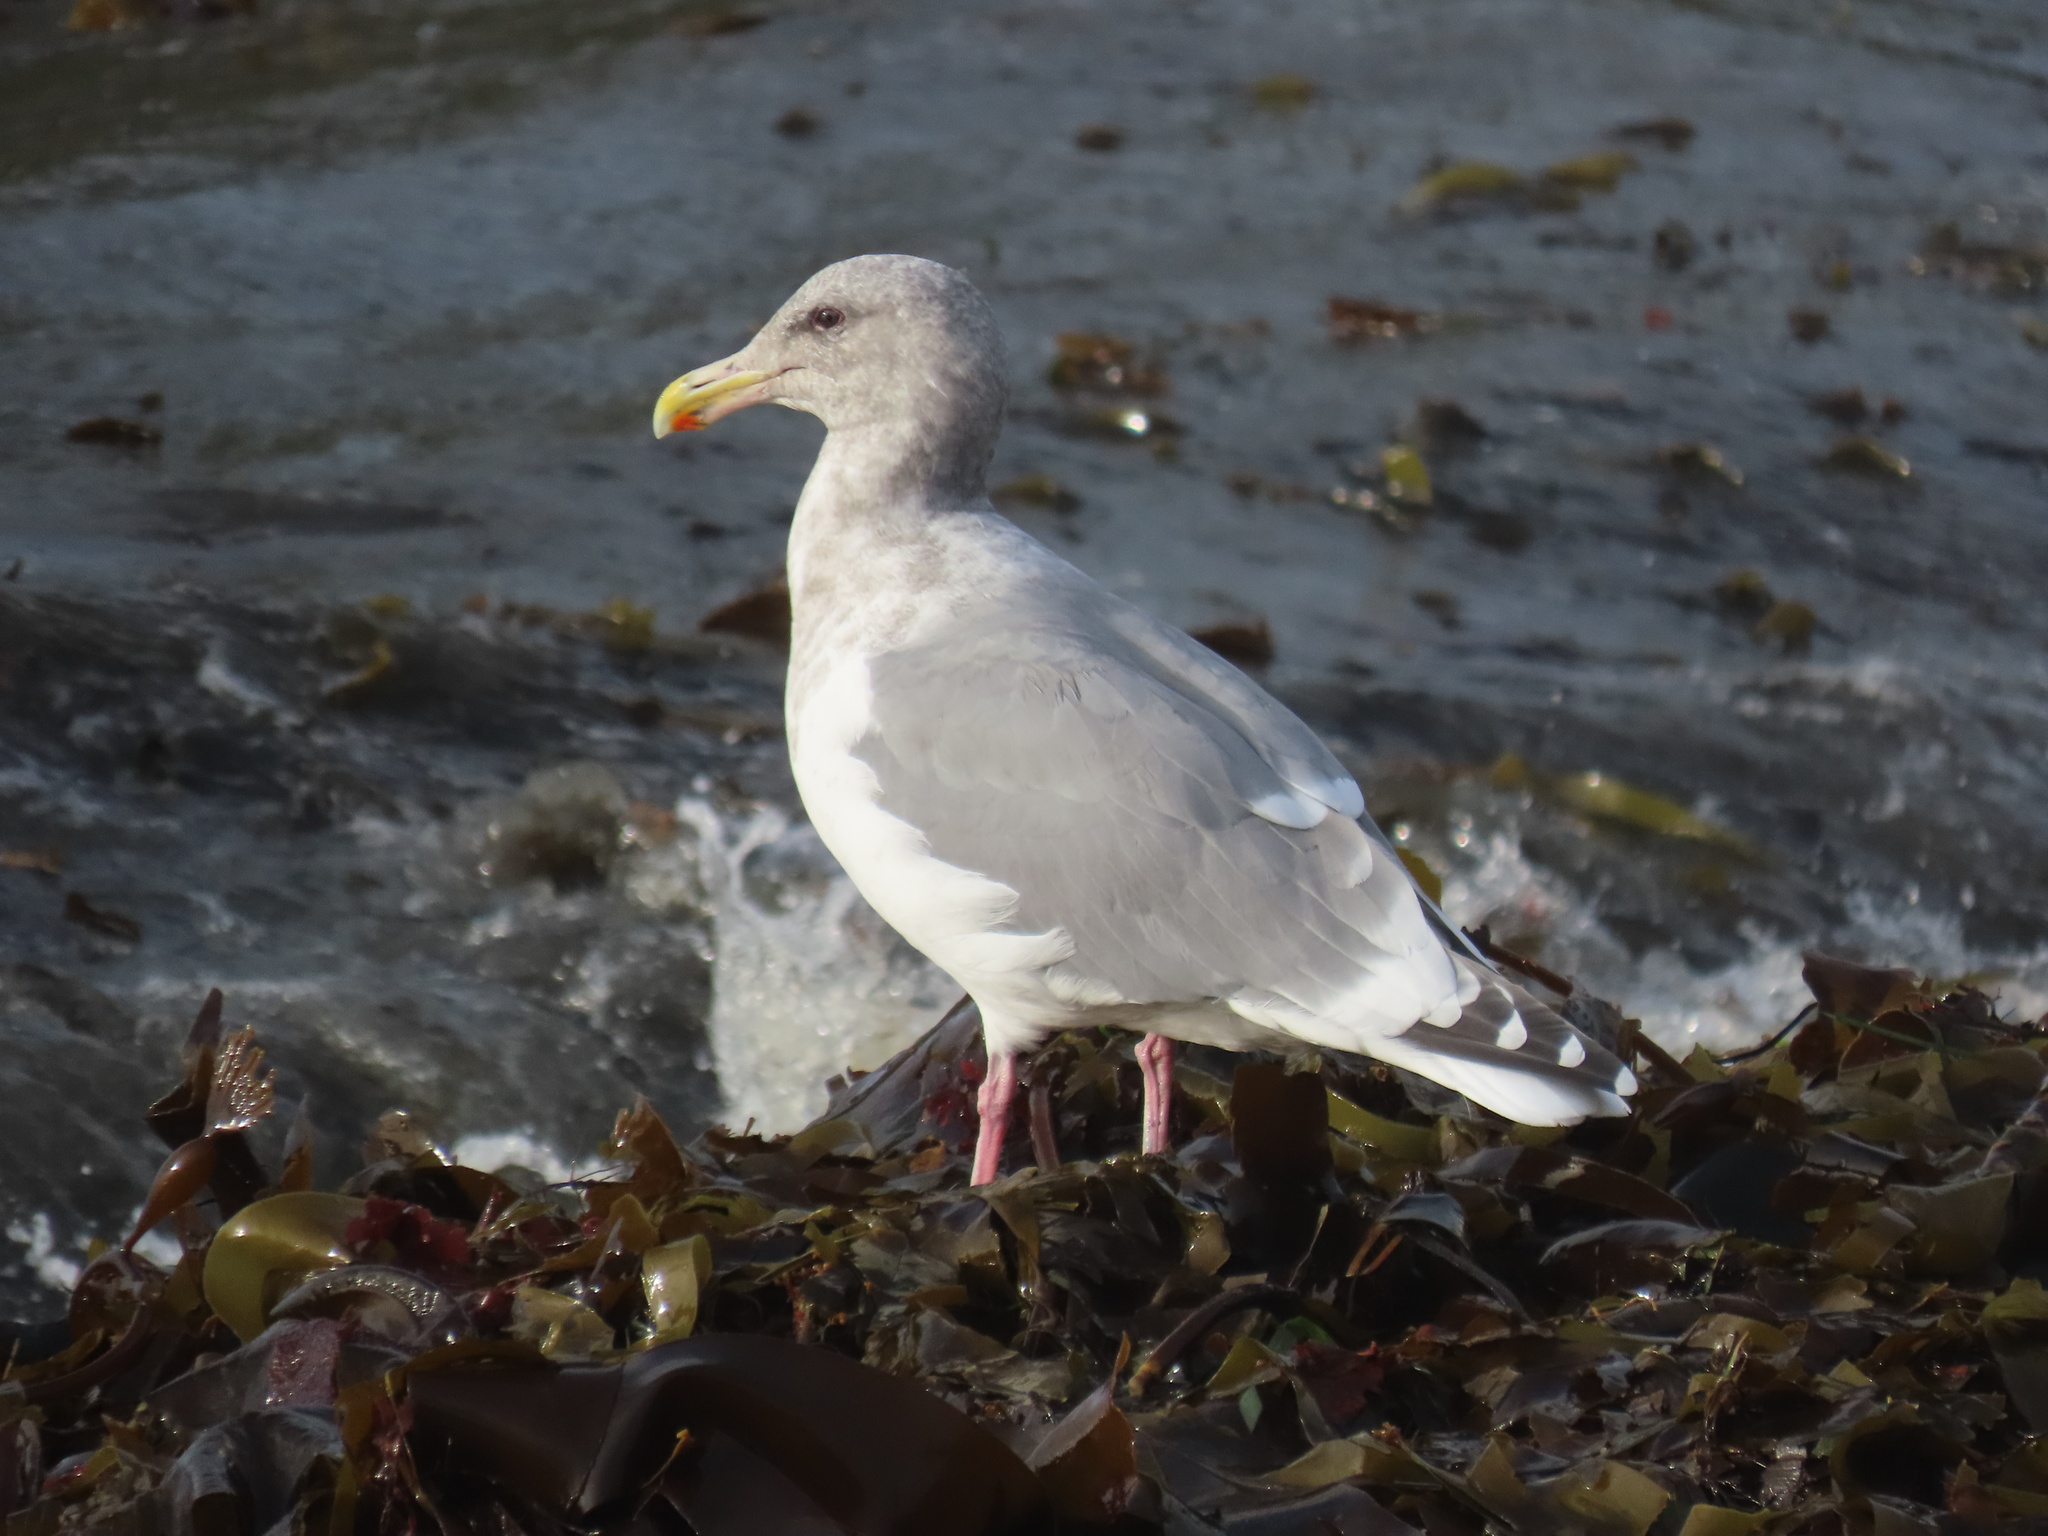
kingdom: Animalia
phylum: Chordata
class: Aves
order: Charadriiformes
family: Laridae
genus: Larus
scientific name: Larus
